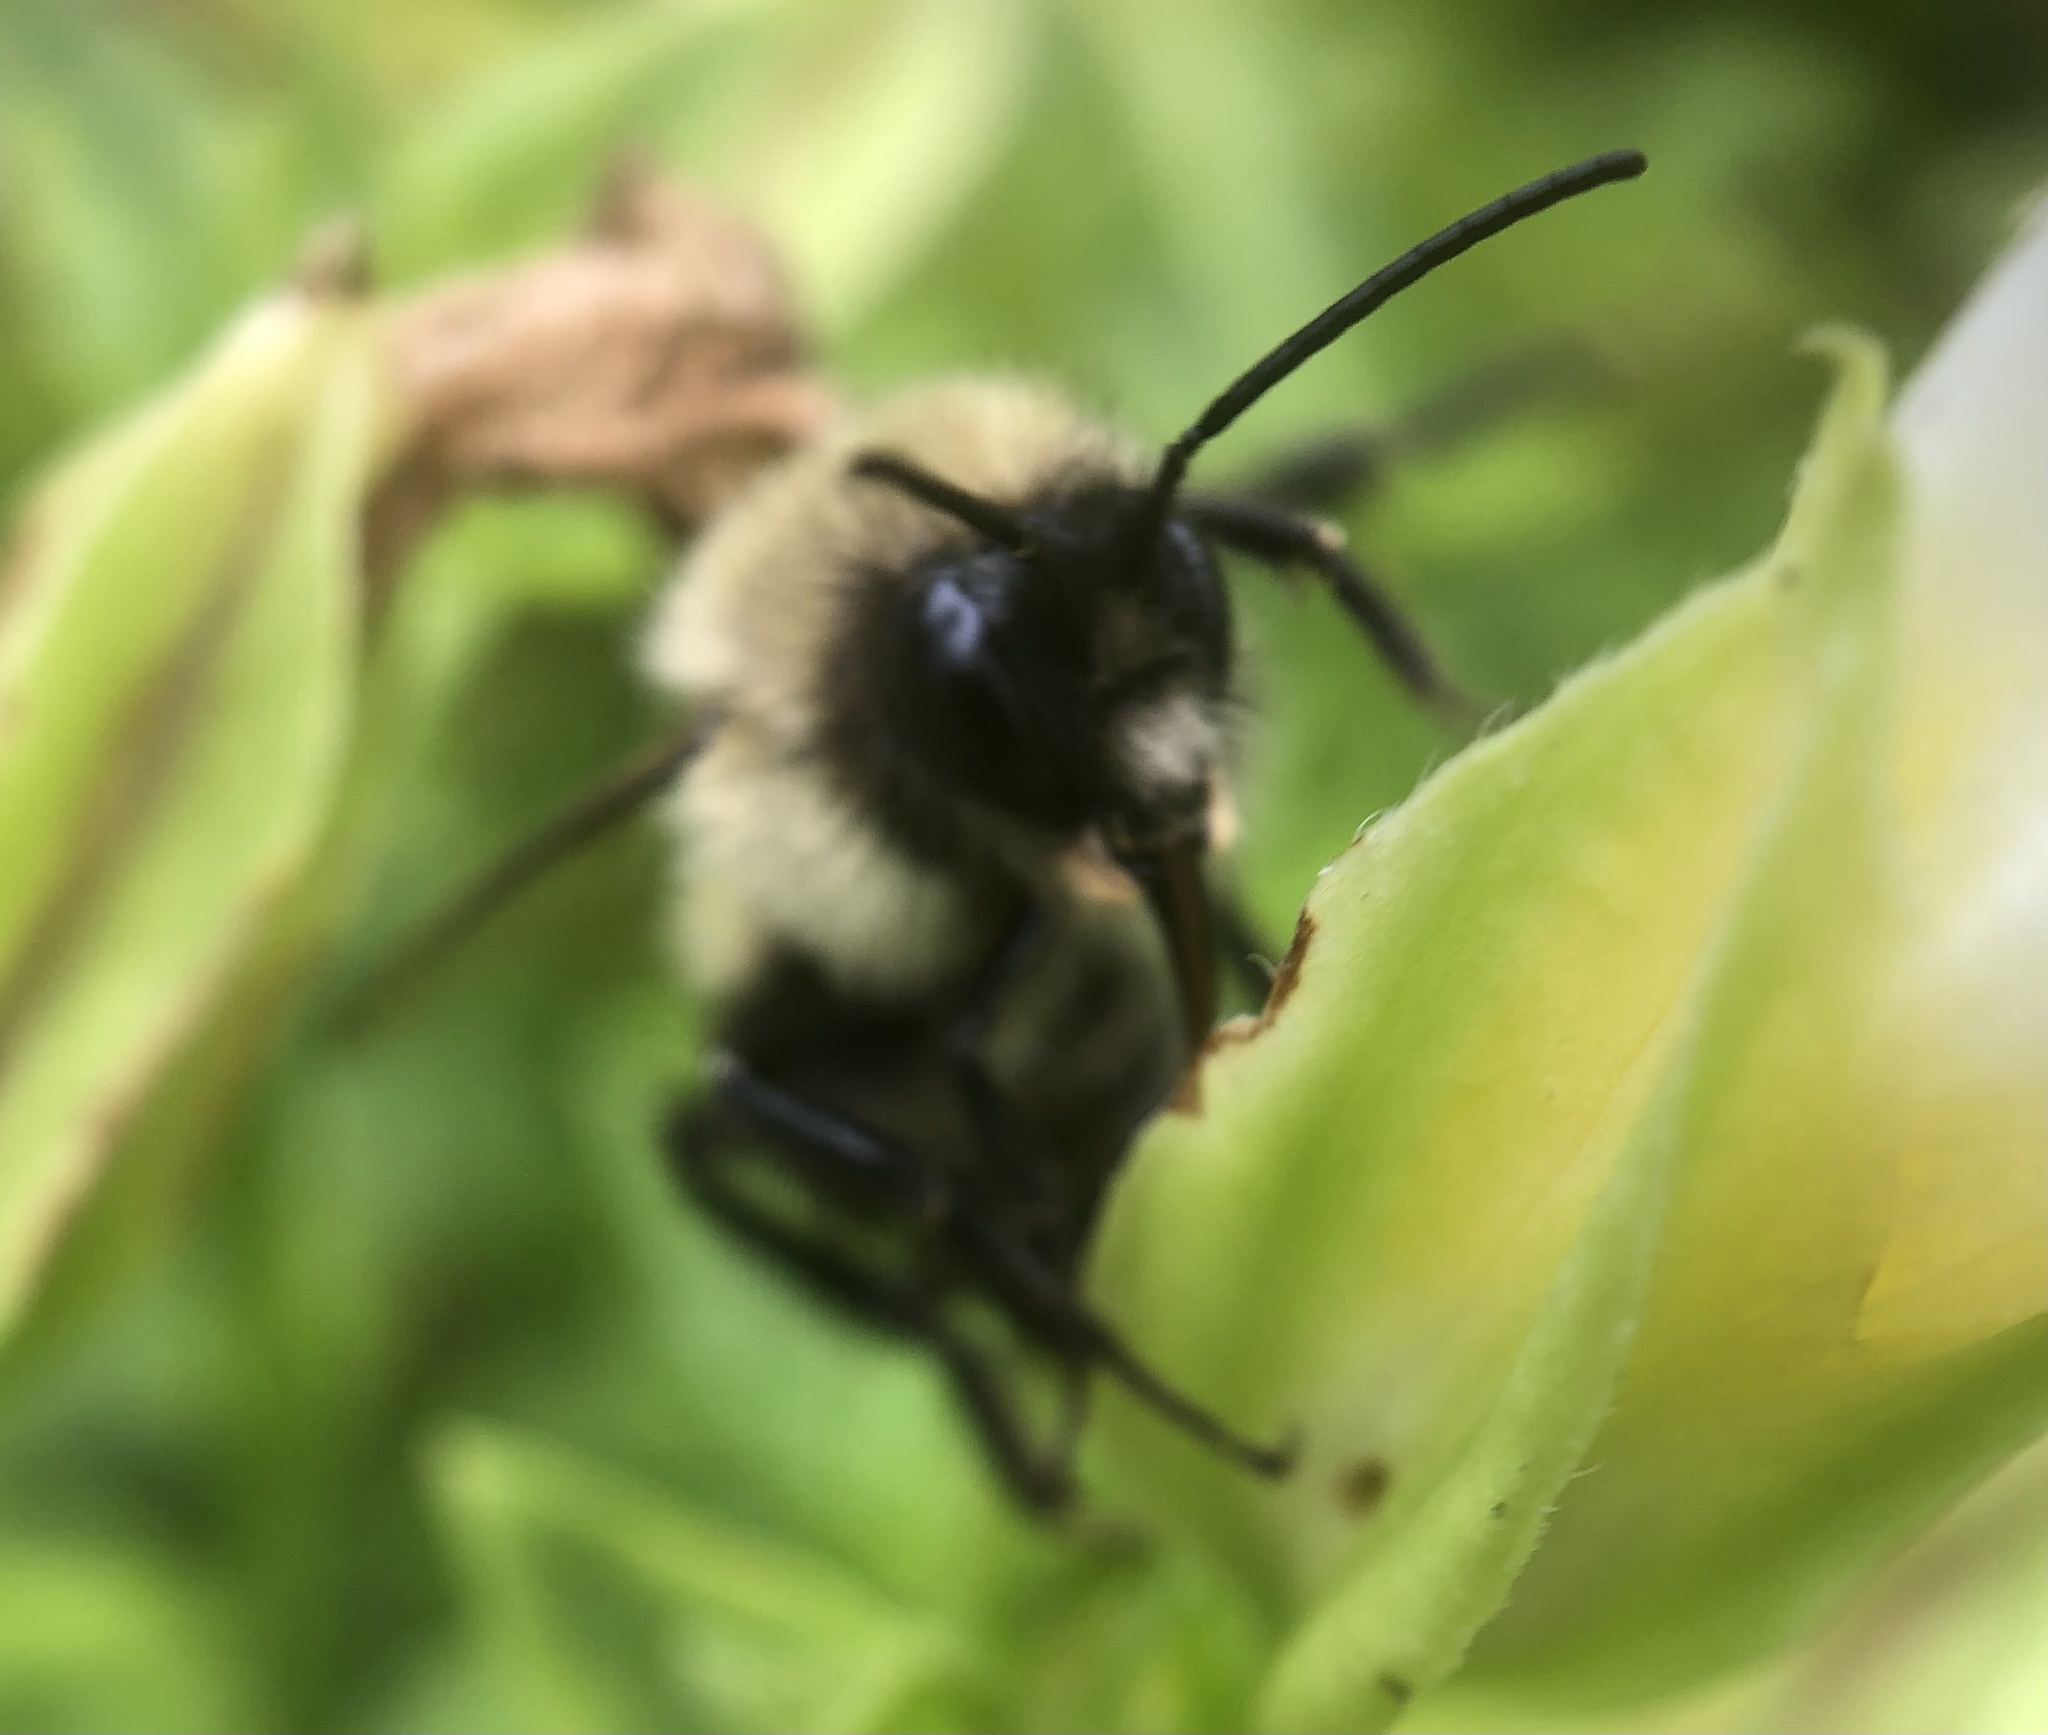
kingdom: Animalia
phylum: Arthropoda
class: Insecta
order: Hymenoptera
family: Apidae
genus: Bombus
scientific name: Bombus impatiens
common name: Common eastern bumble bee
